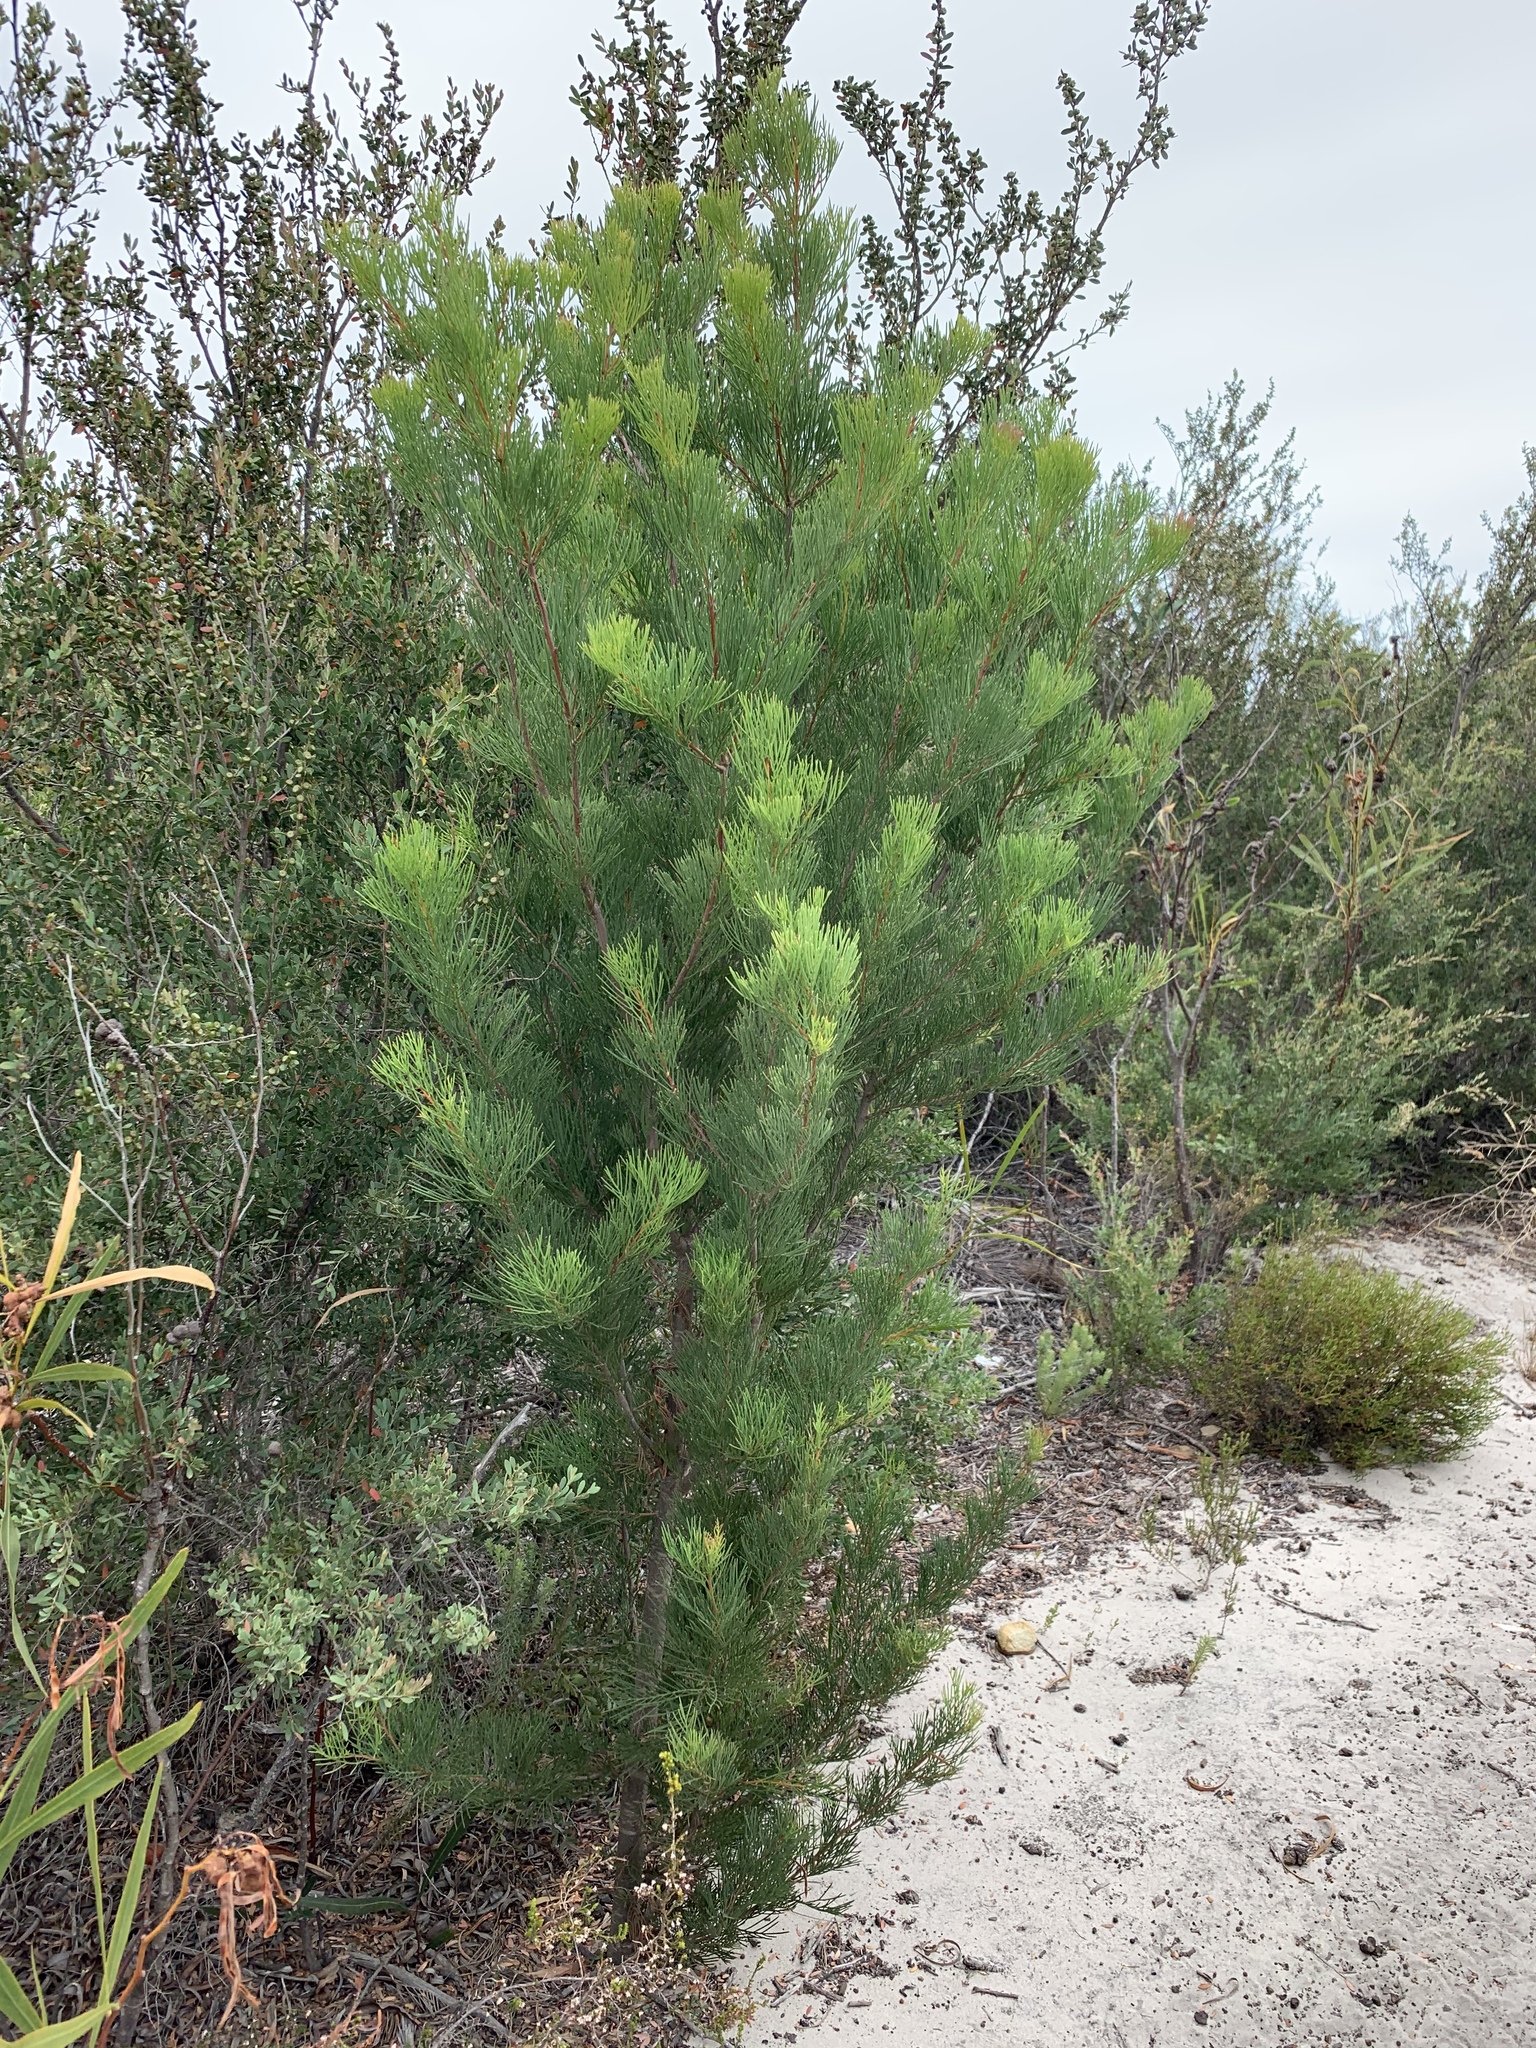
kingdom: Plantae
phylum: Tracheophyta
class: Magnoliopsida
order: Proteales
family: Proteaceae
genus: Hakea
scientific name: Hakea drupacea
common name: Sweet hakea
